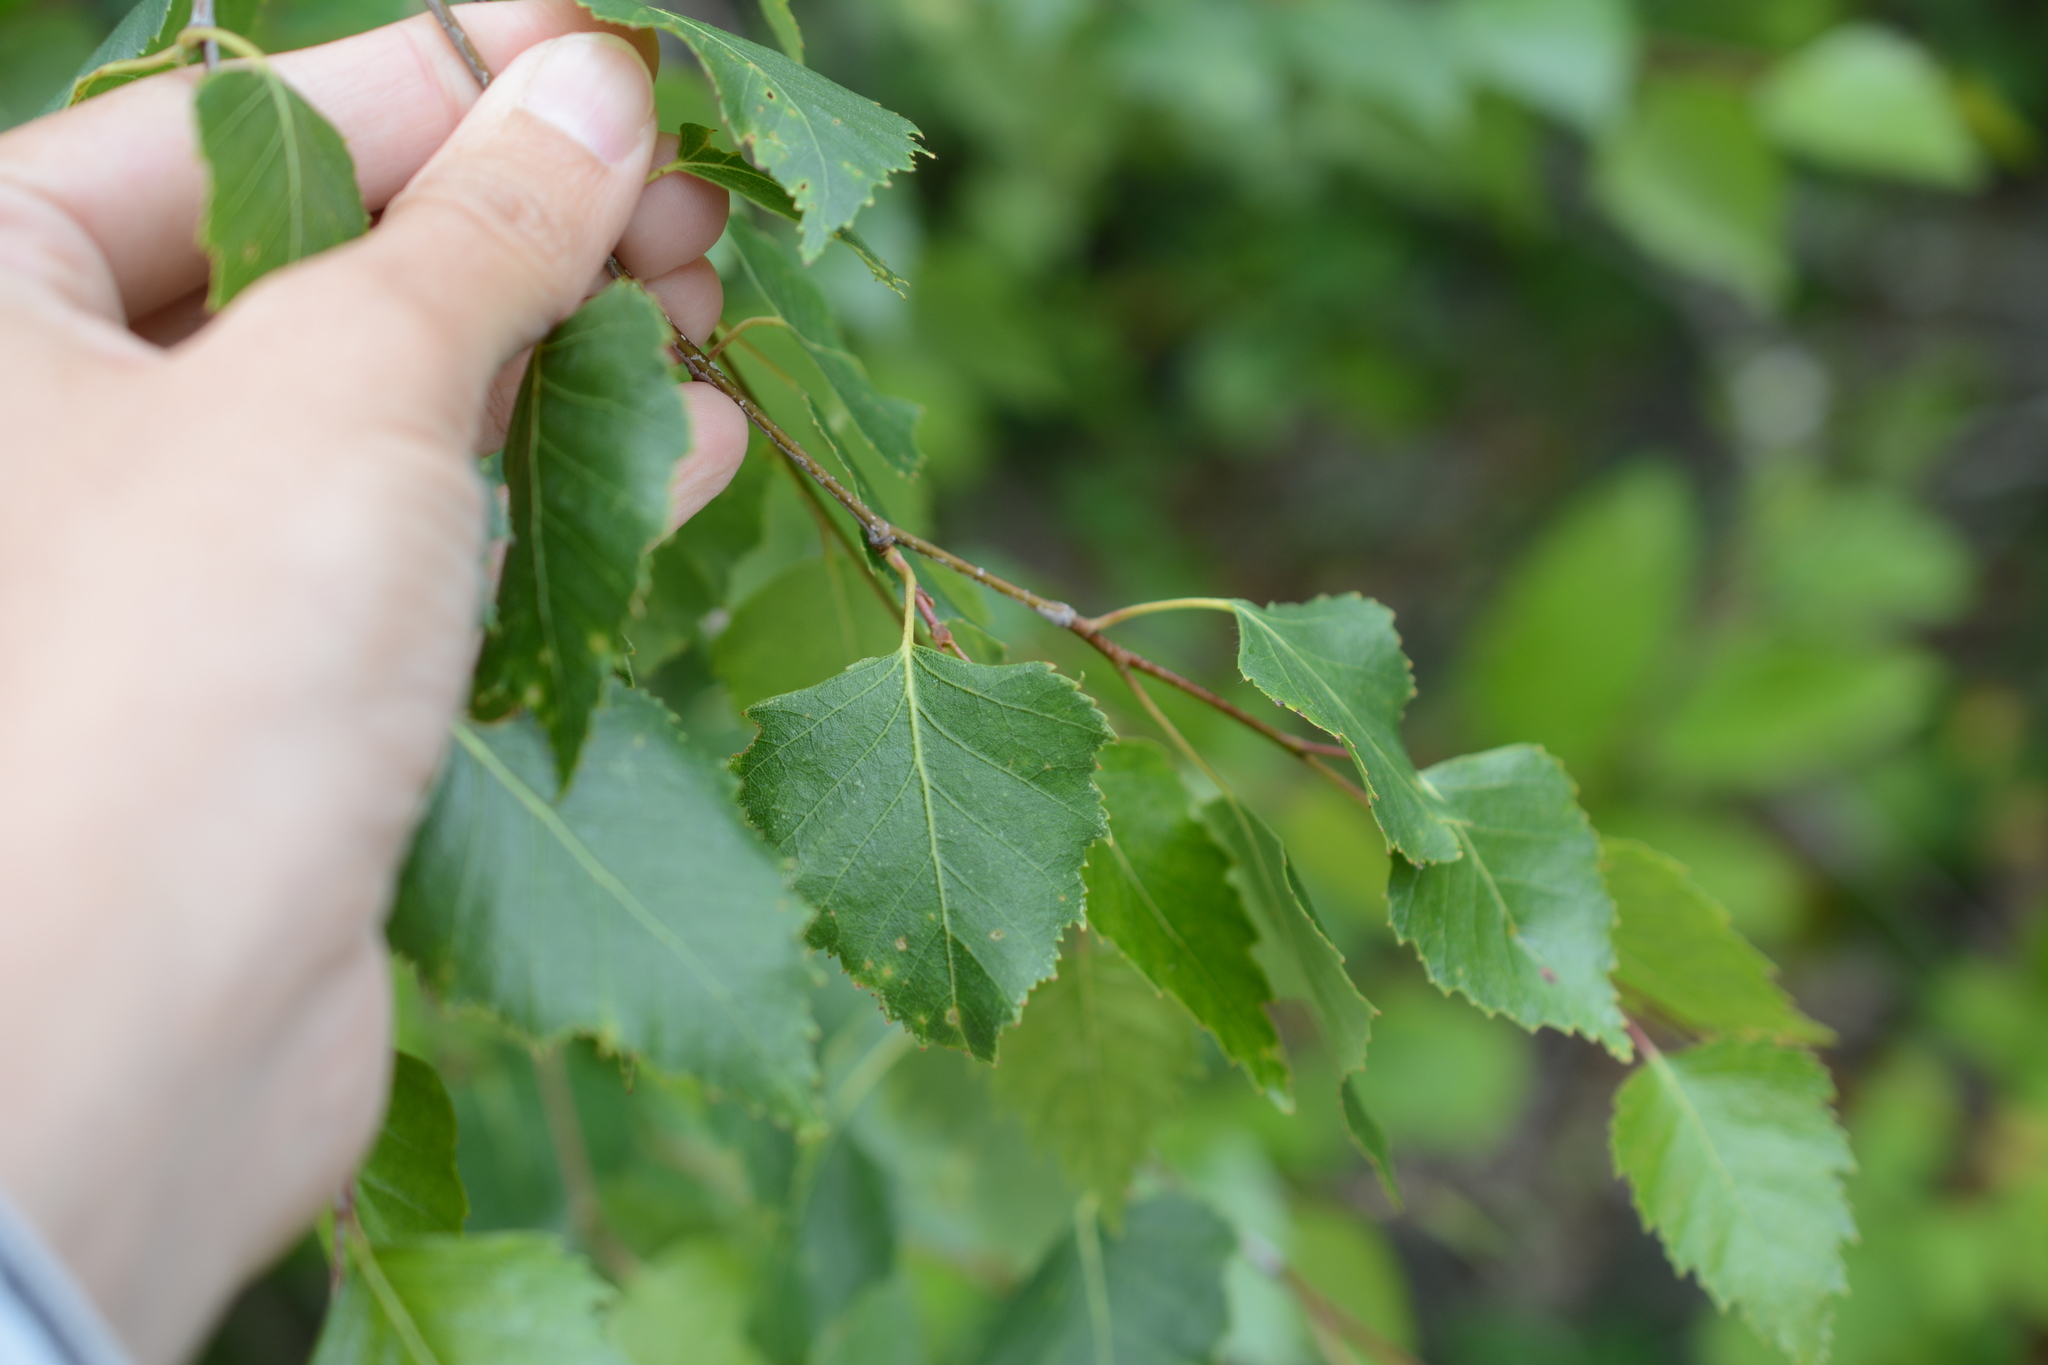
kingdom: Plantae
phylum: Tracheophyta
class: Magnoliopsida
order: Fagales
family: Betulaceae
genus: Betula
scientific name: Betula papyrifera
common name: Paper birch
